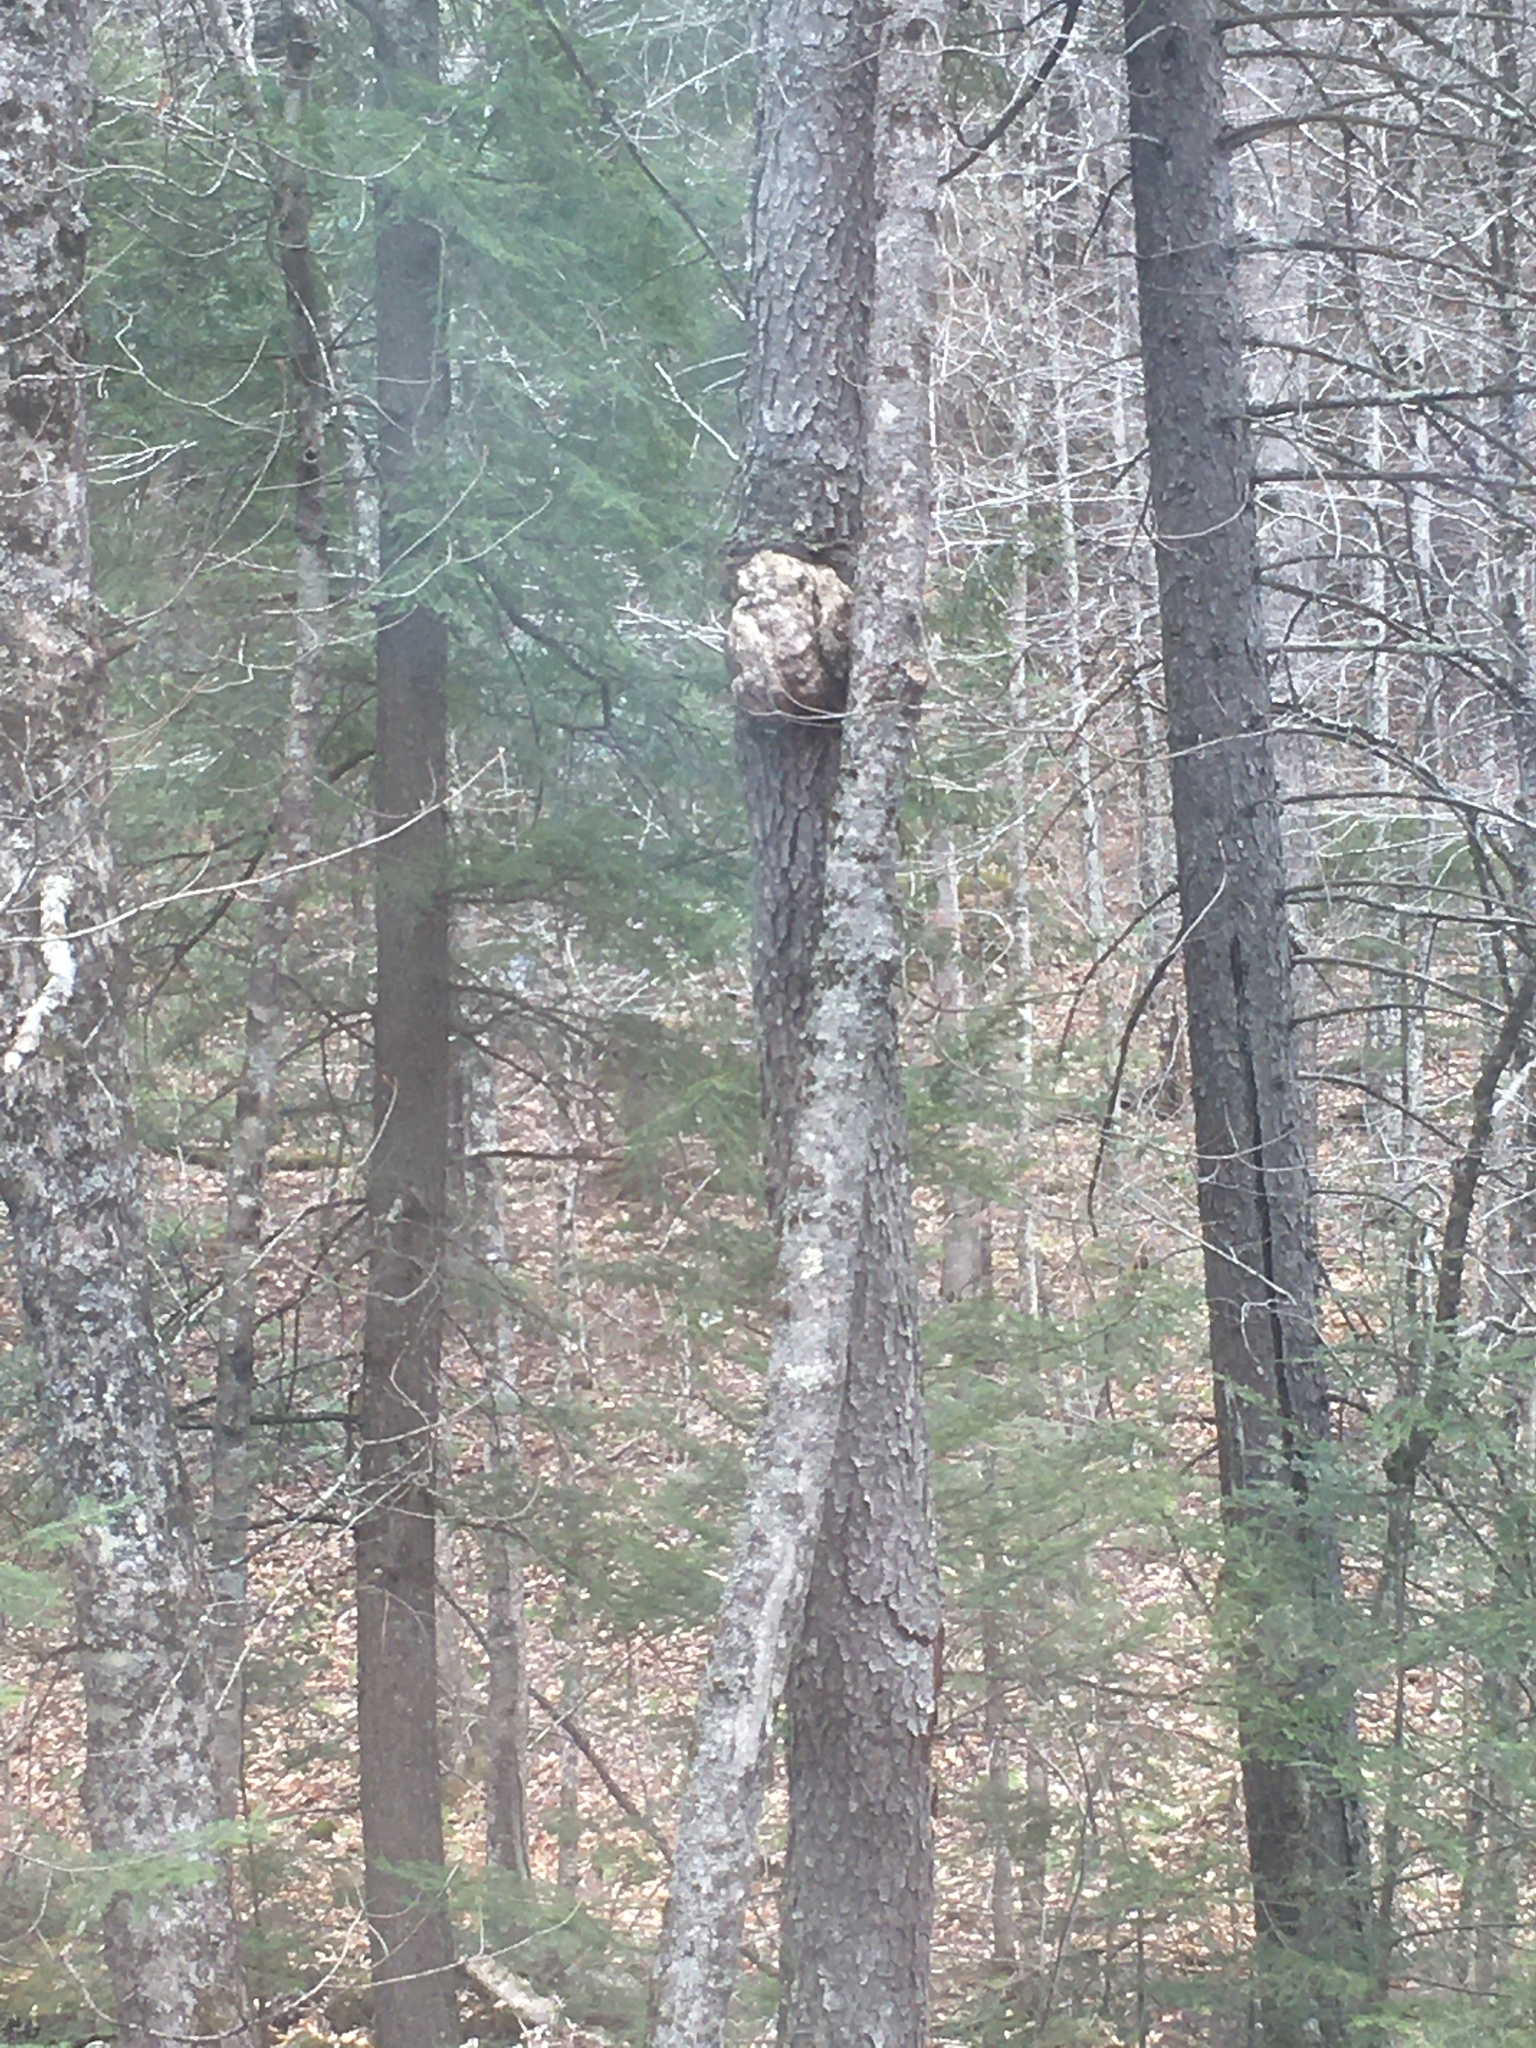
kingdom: Plantae
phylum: Tracheophyta
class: Magnoliopsida
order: Rosales
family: Rosaceae
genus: Prunus
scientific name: Prunus serotina
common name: Black cherry
